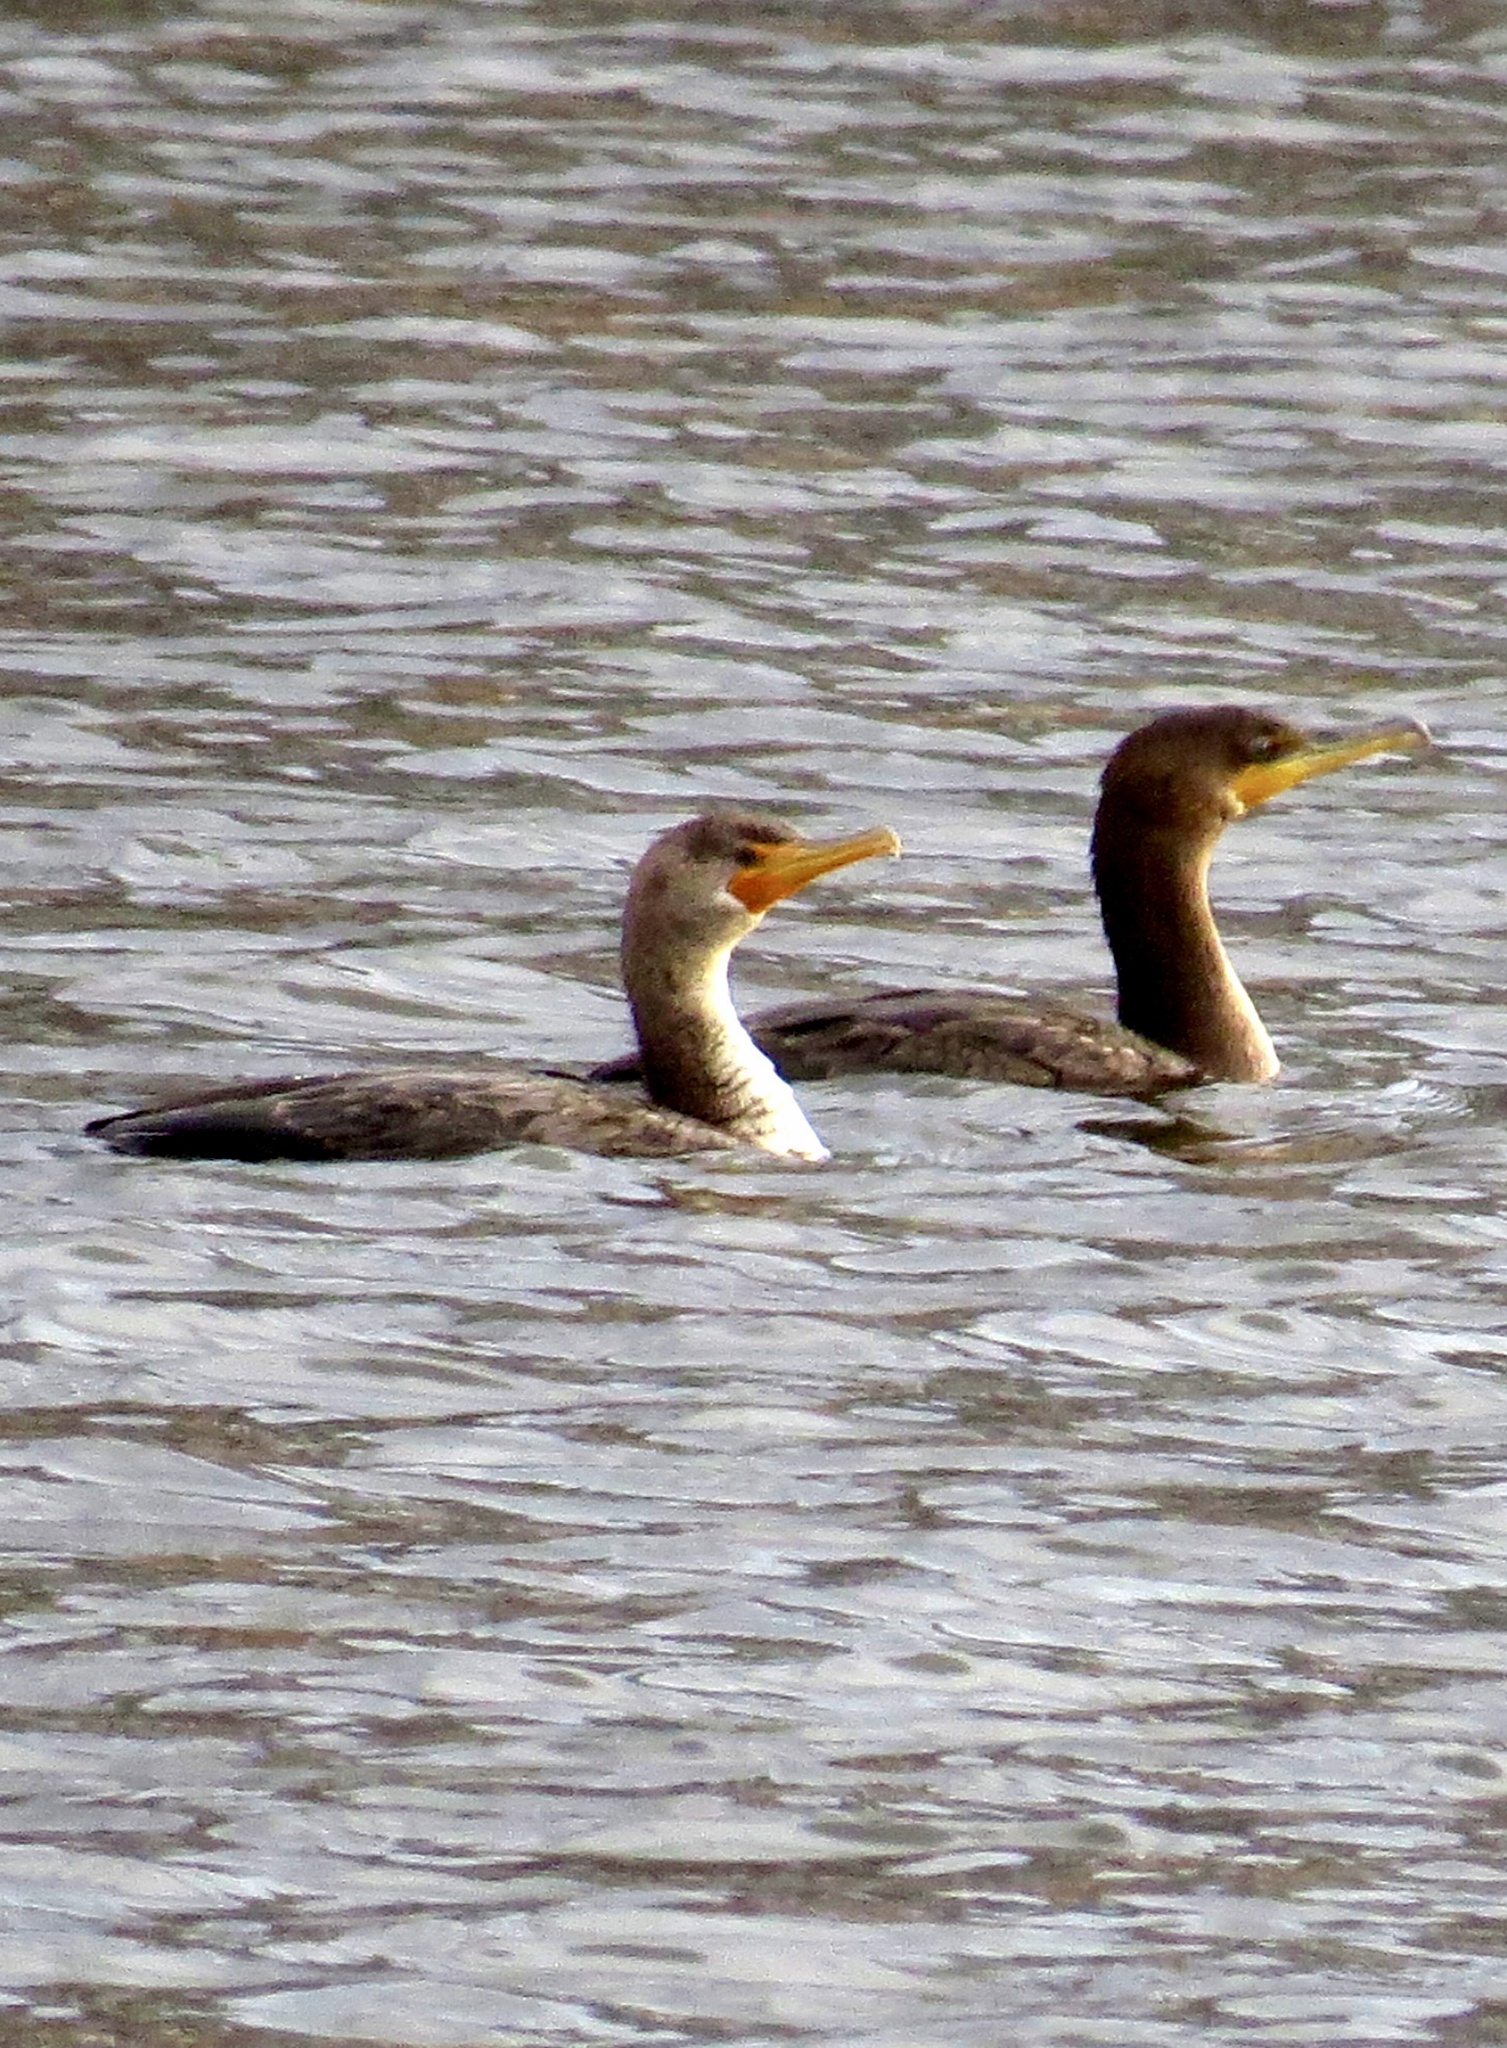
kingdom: Animalia
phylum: Chordata
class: Aves
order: Suliformes
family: Phalacrocoracidae
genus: Phalacrocorax
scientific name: Phalacrocorax auritus
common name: Double-crested cormorant
